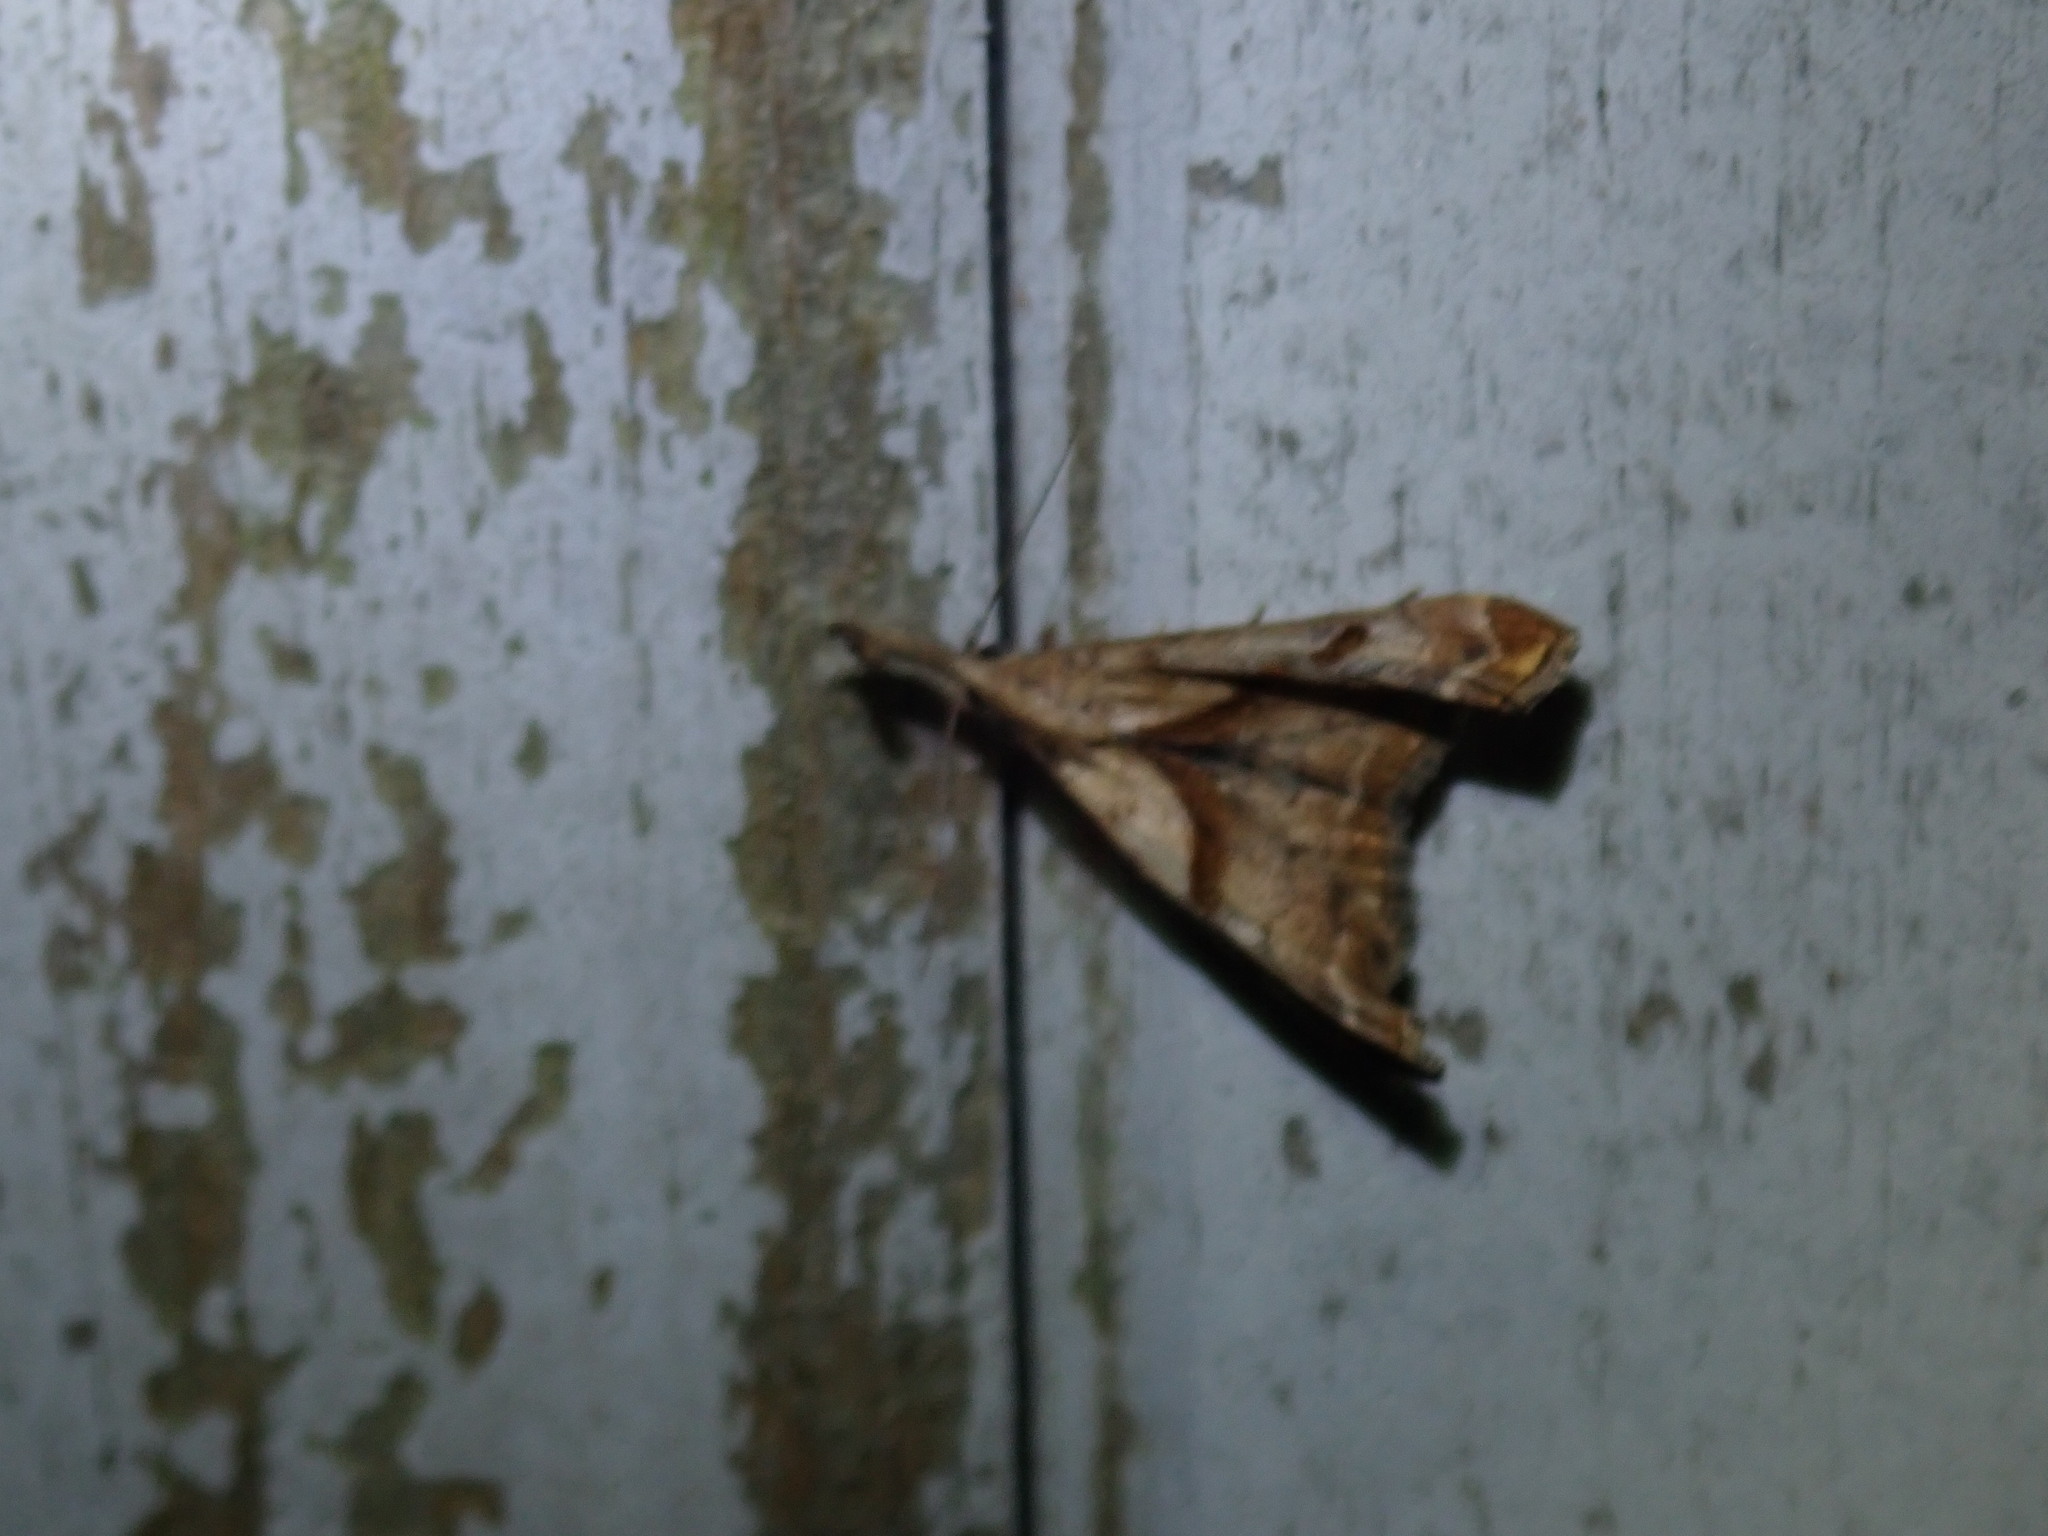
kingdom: Animalia
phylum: Arthropoda
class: Insecta
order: Lepidoptera
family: Erebidae
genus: Palthis
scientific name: Palthis angulalis
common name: Dark-spotted palthis moth
